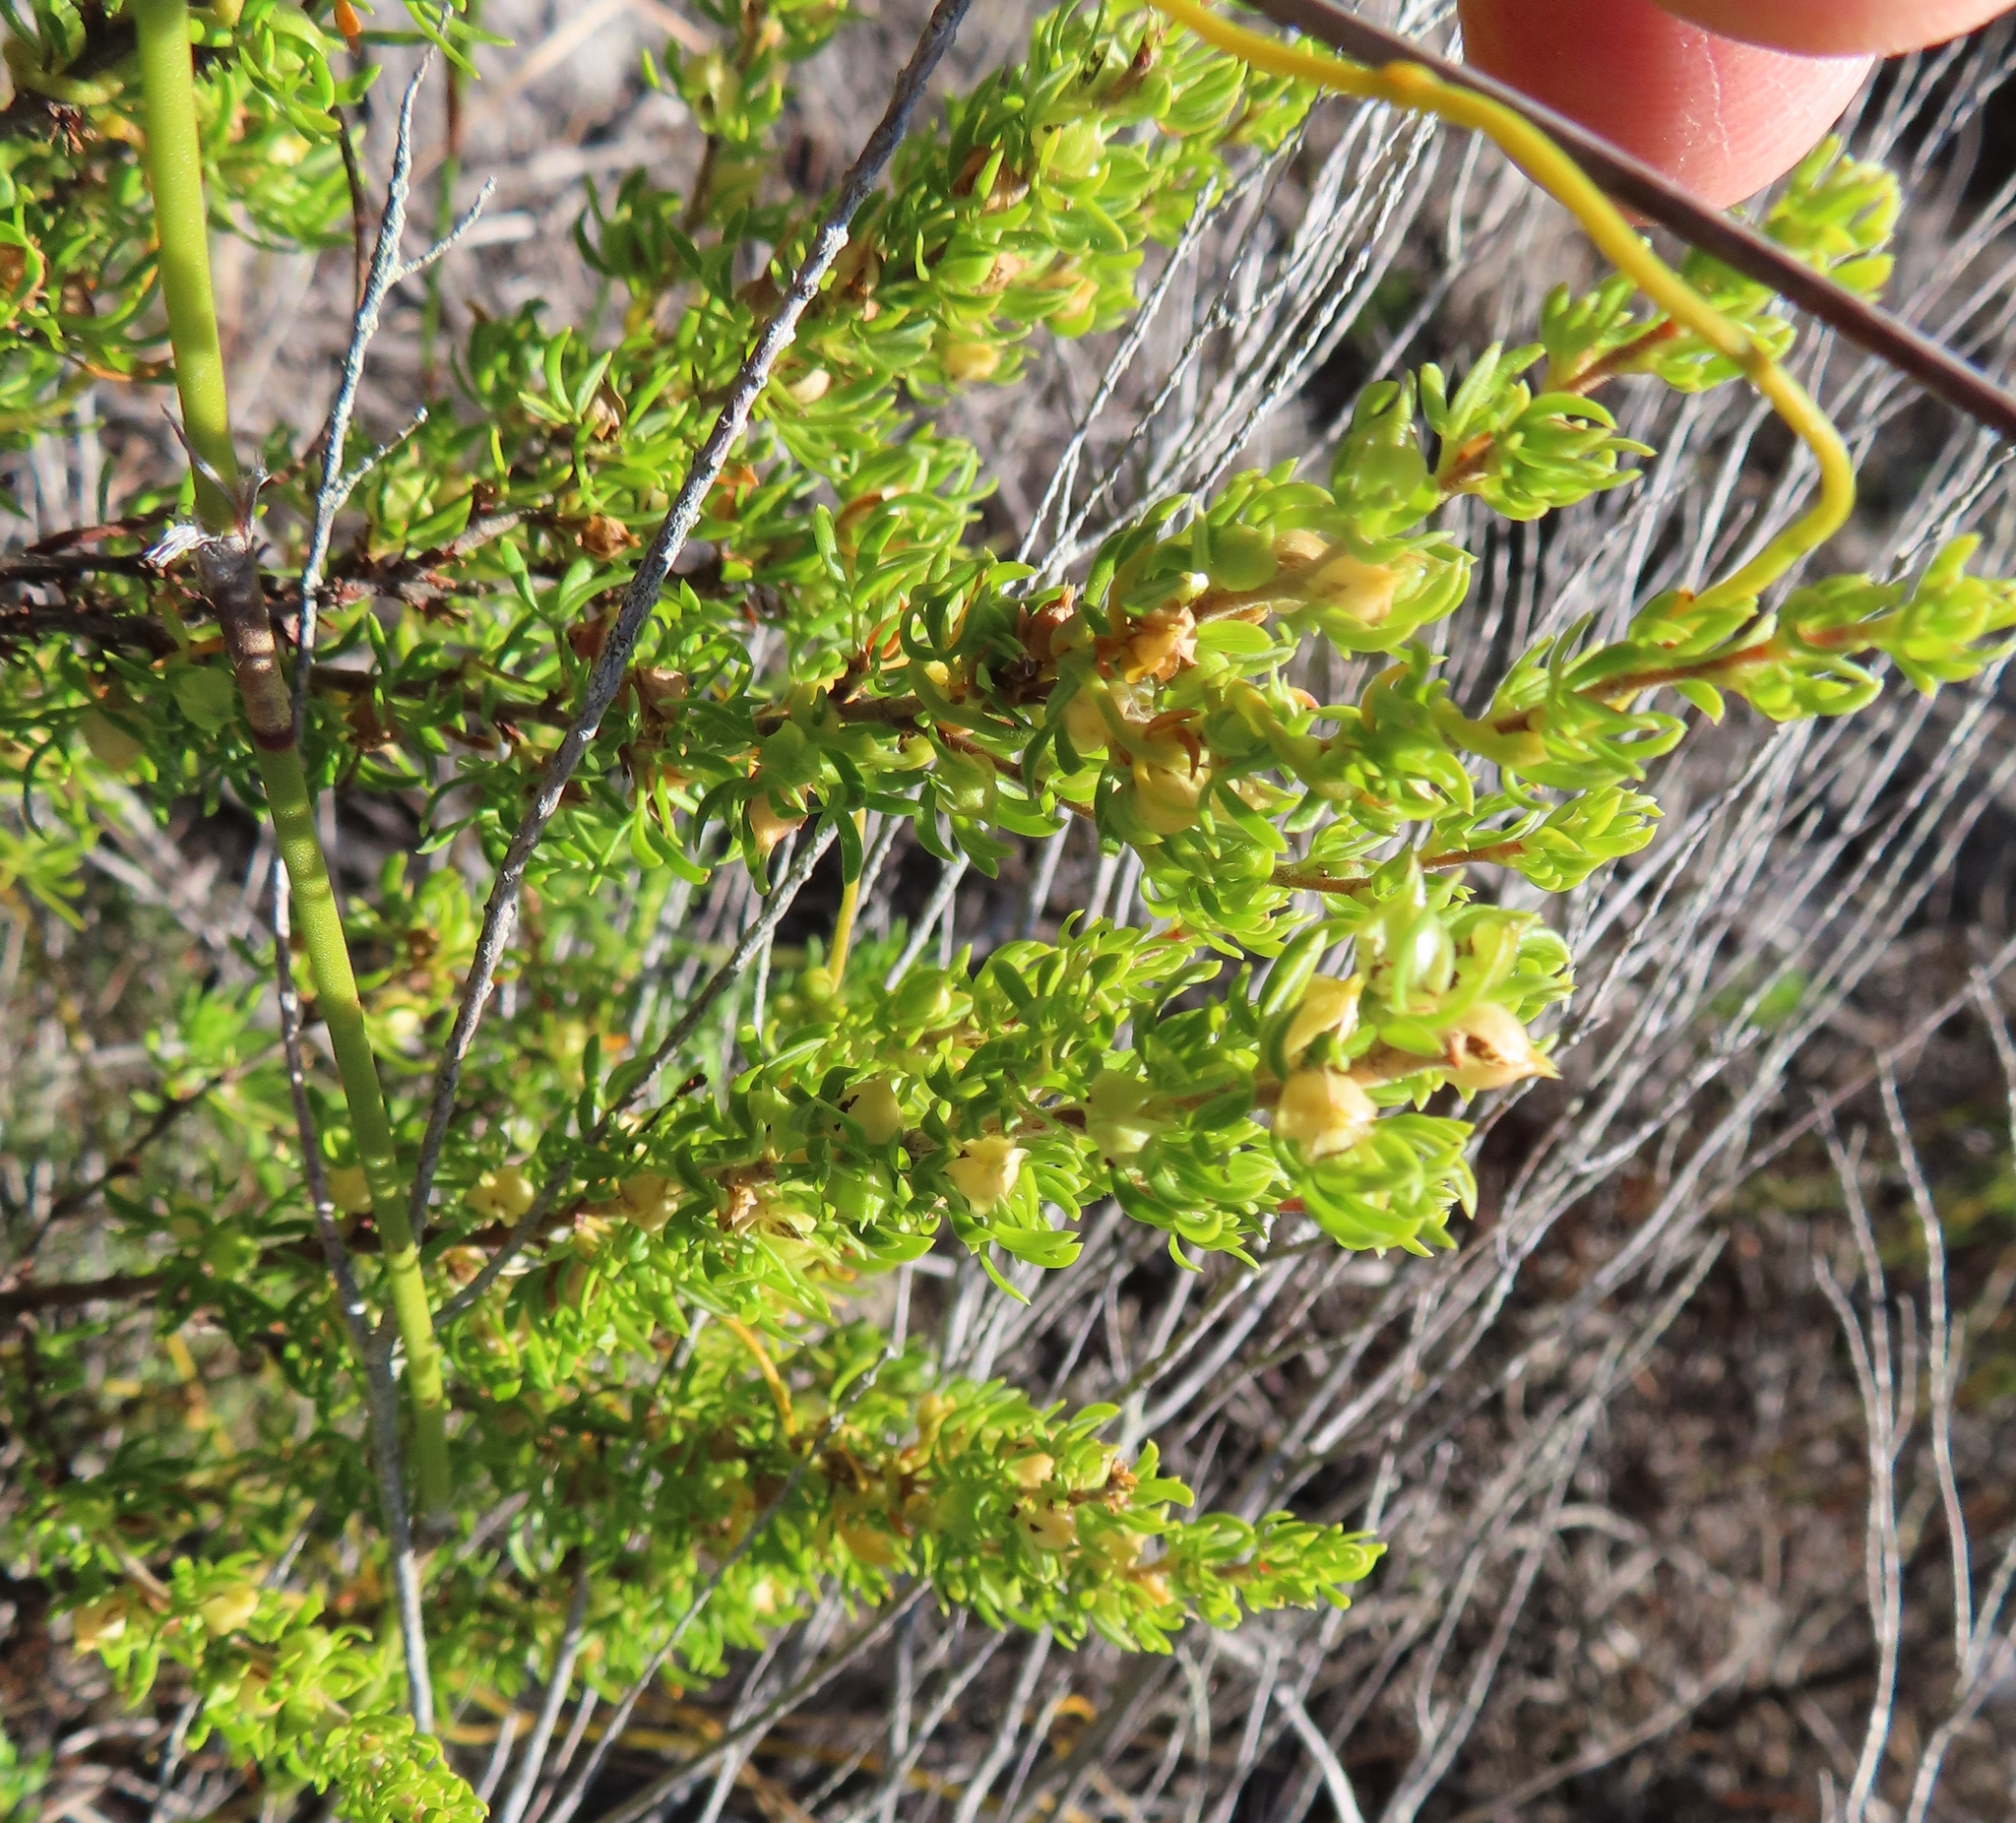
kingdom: Plantae
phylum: Tracheophyta
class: Magnoliopsida
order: Rosales
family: Rosaceae
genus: Cliffortia
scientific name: Cliffortia falcata
